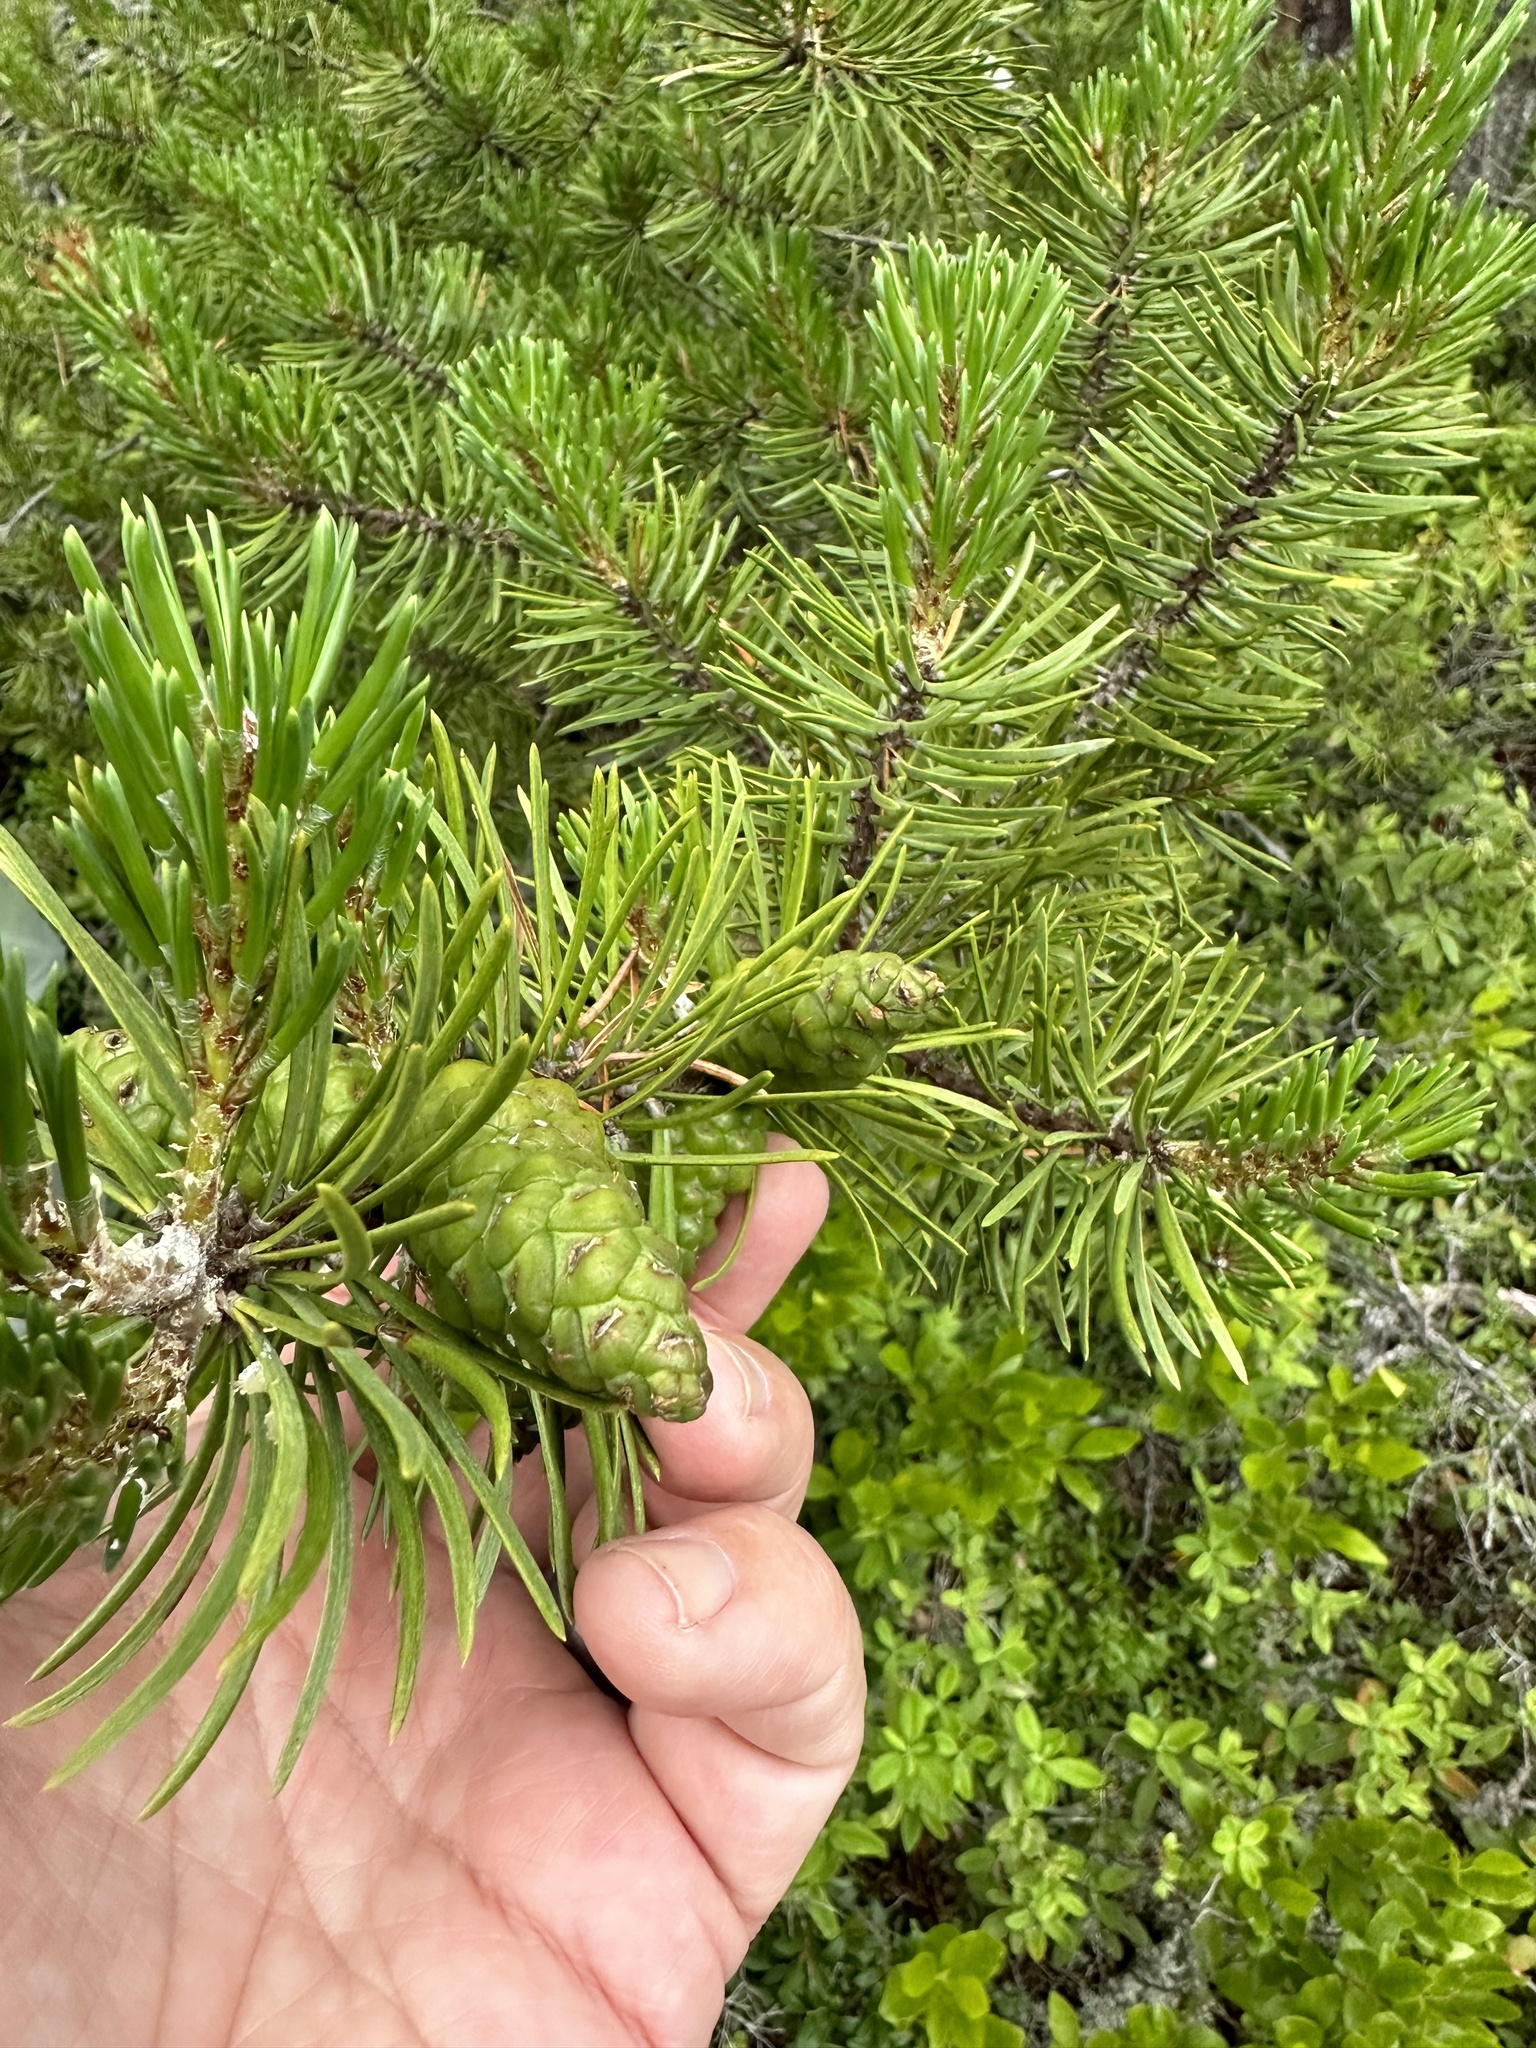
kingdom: Plantae
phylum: Tracheophyta
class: Pinopsida
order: Pinales
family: Pinaceae
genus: Pinus
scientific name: Pinus banksiana
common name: Jack pine
